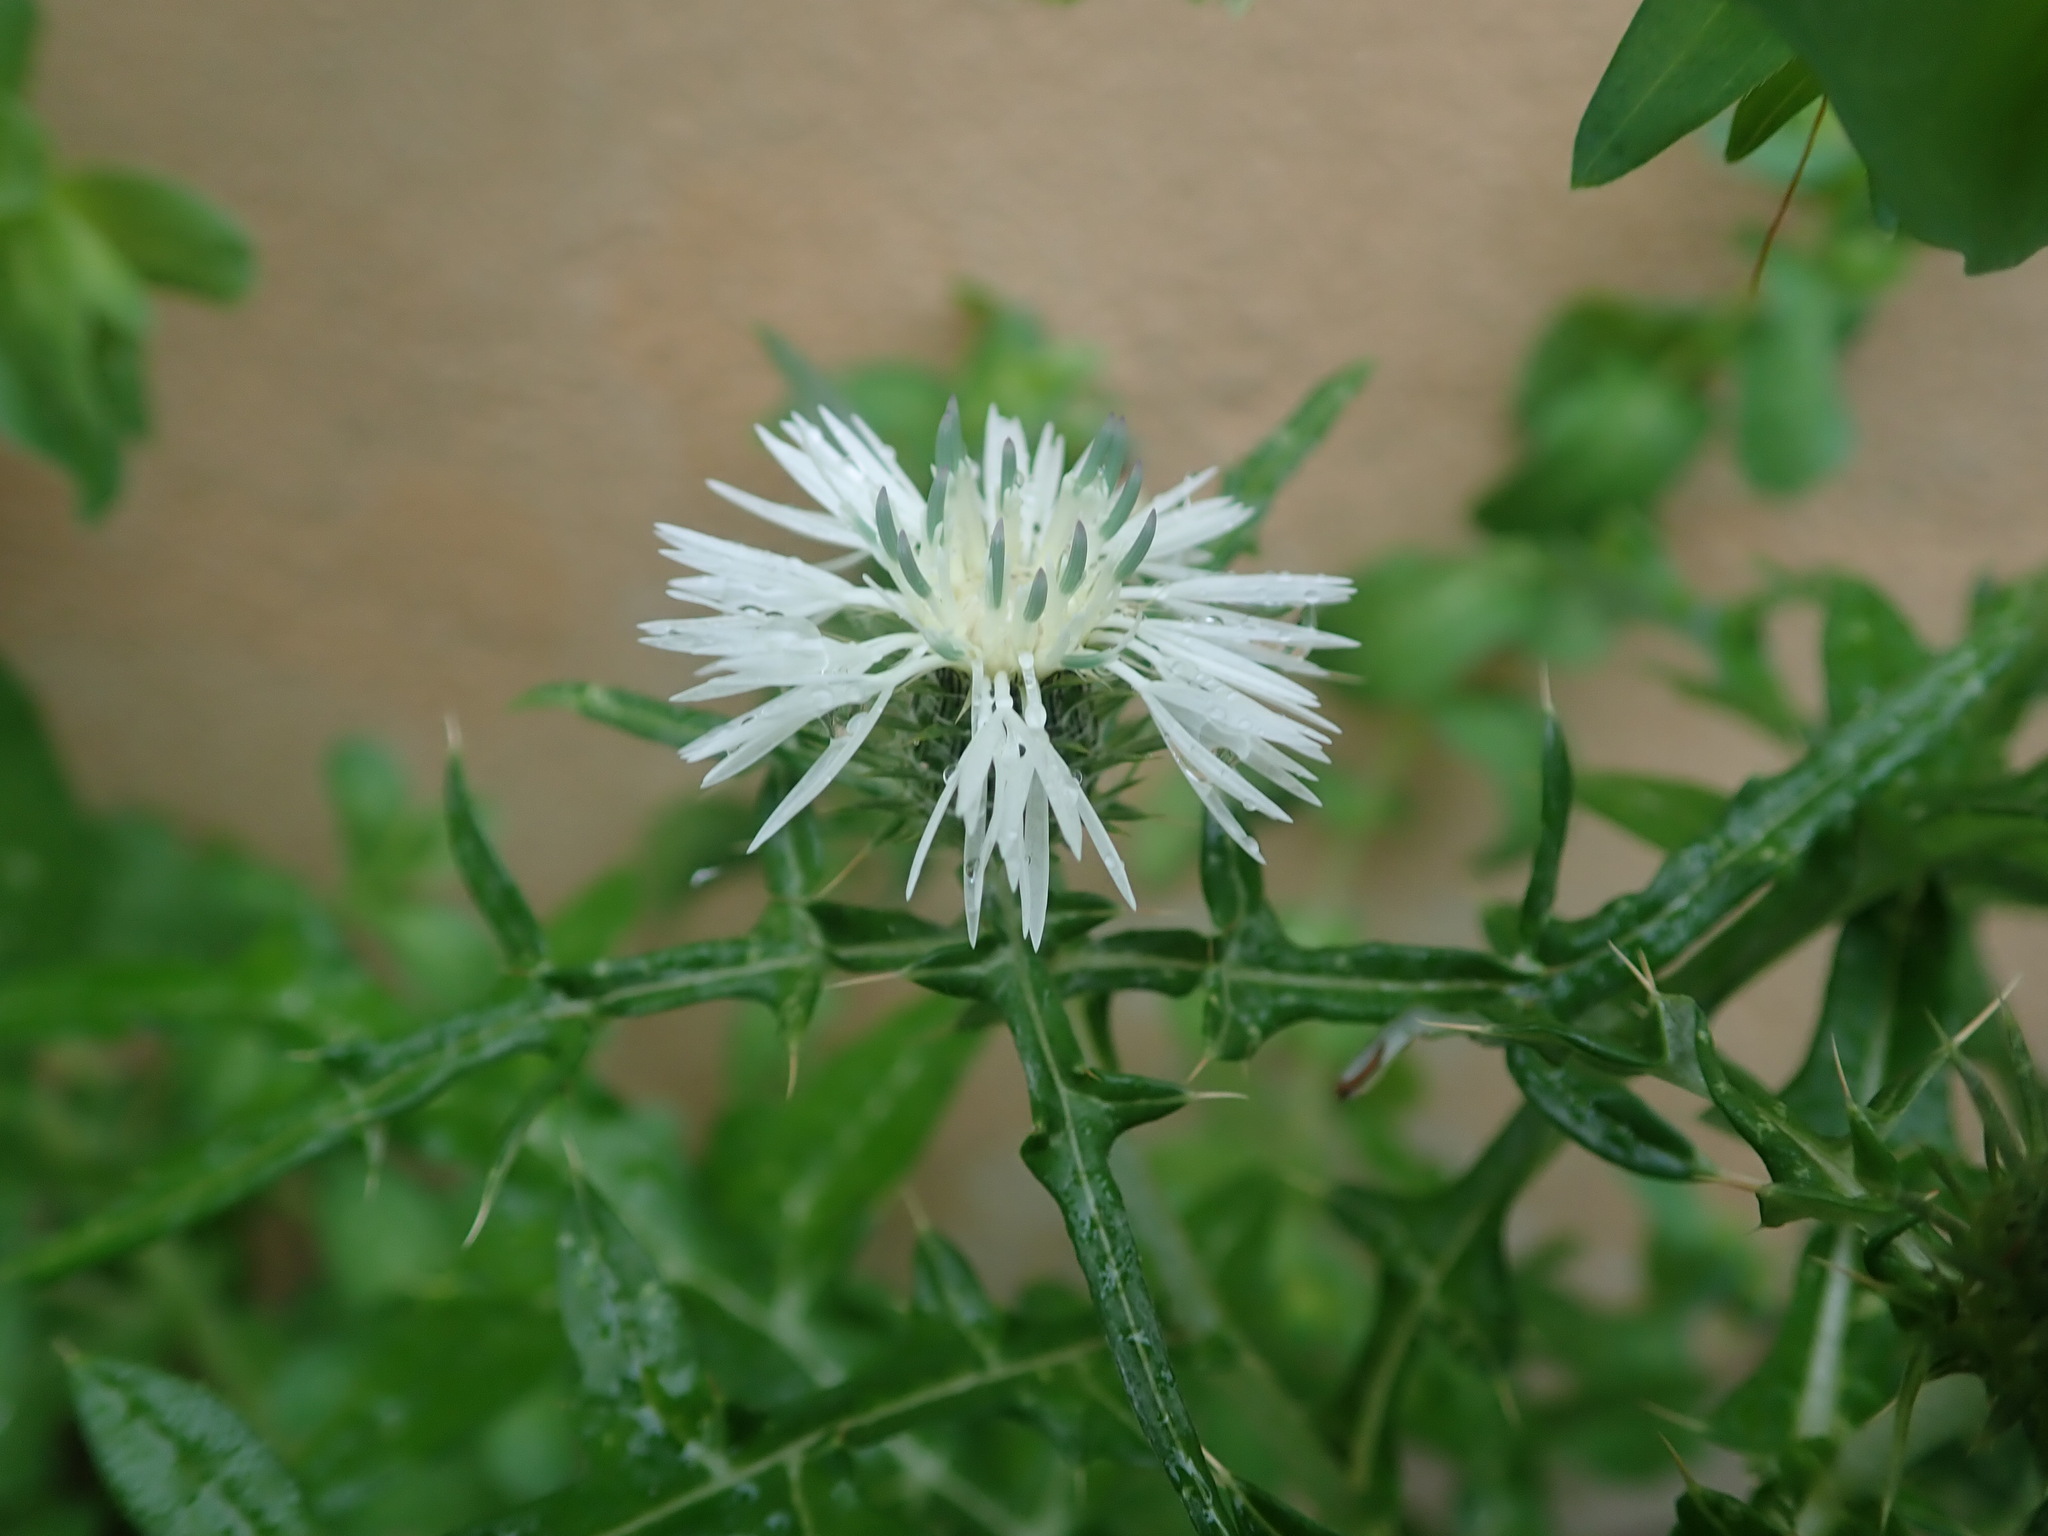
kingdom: Plantae
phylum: Tracheophyta
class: Magnoliopsida
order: Asterales
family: Asteraceae
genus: Galactites
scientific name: Galactites tomentosa
